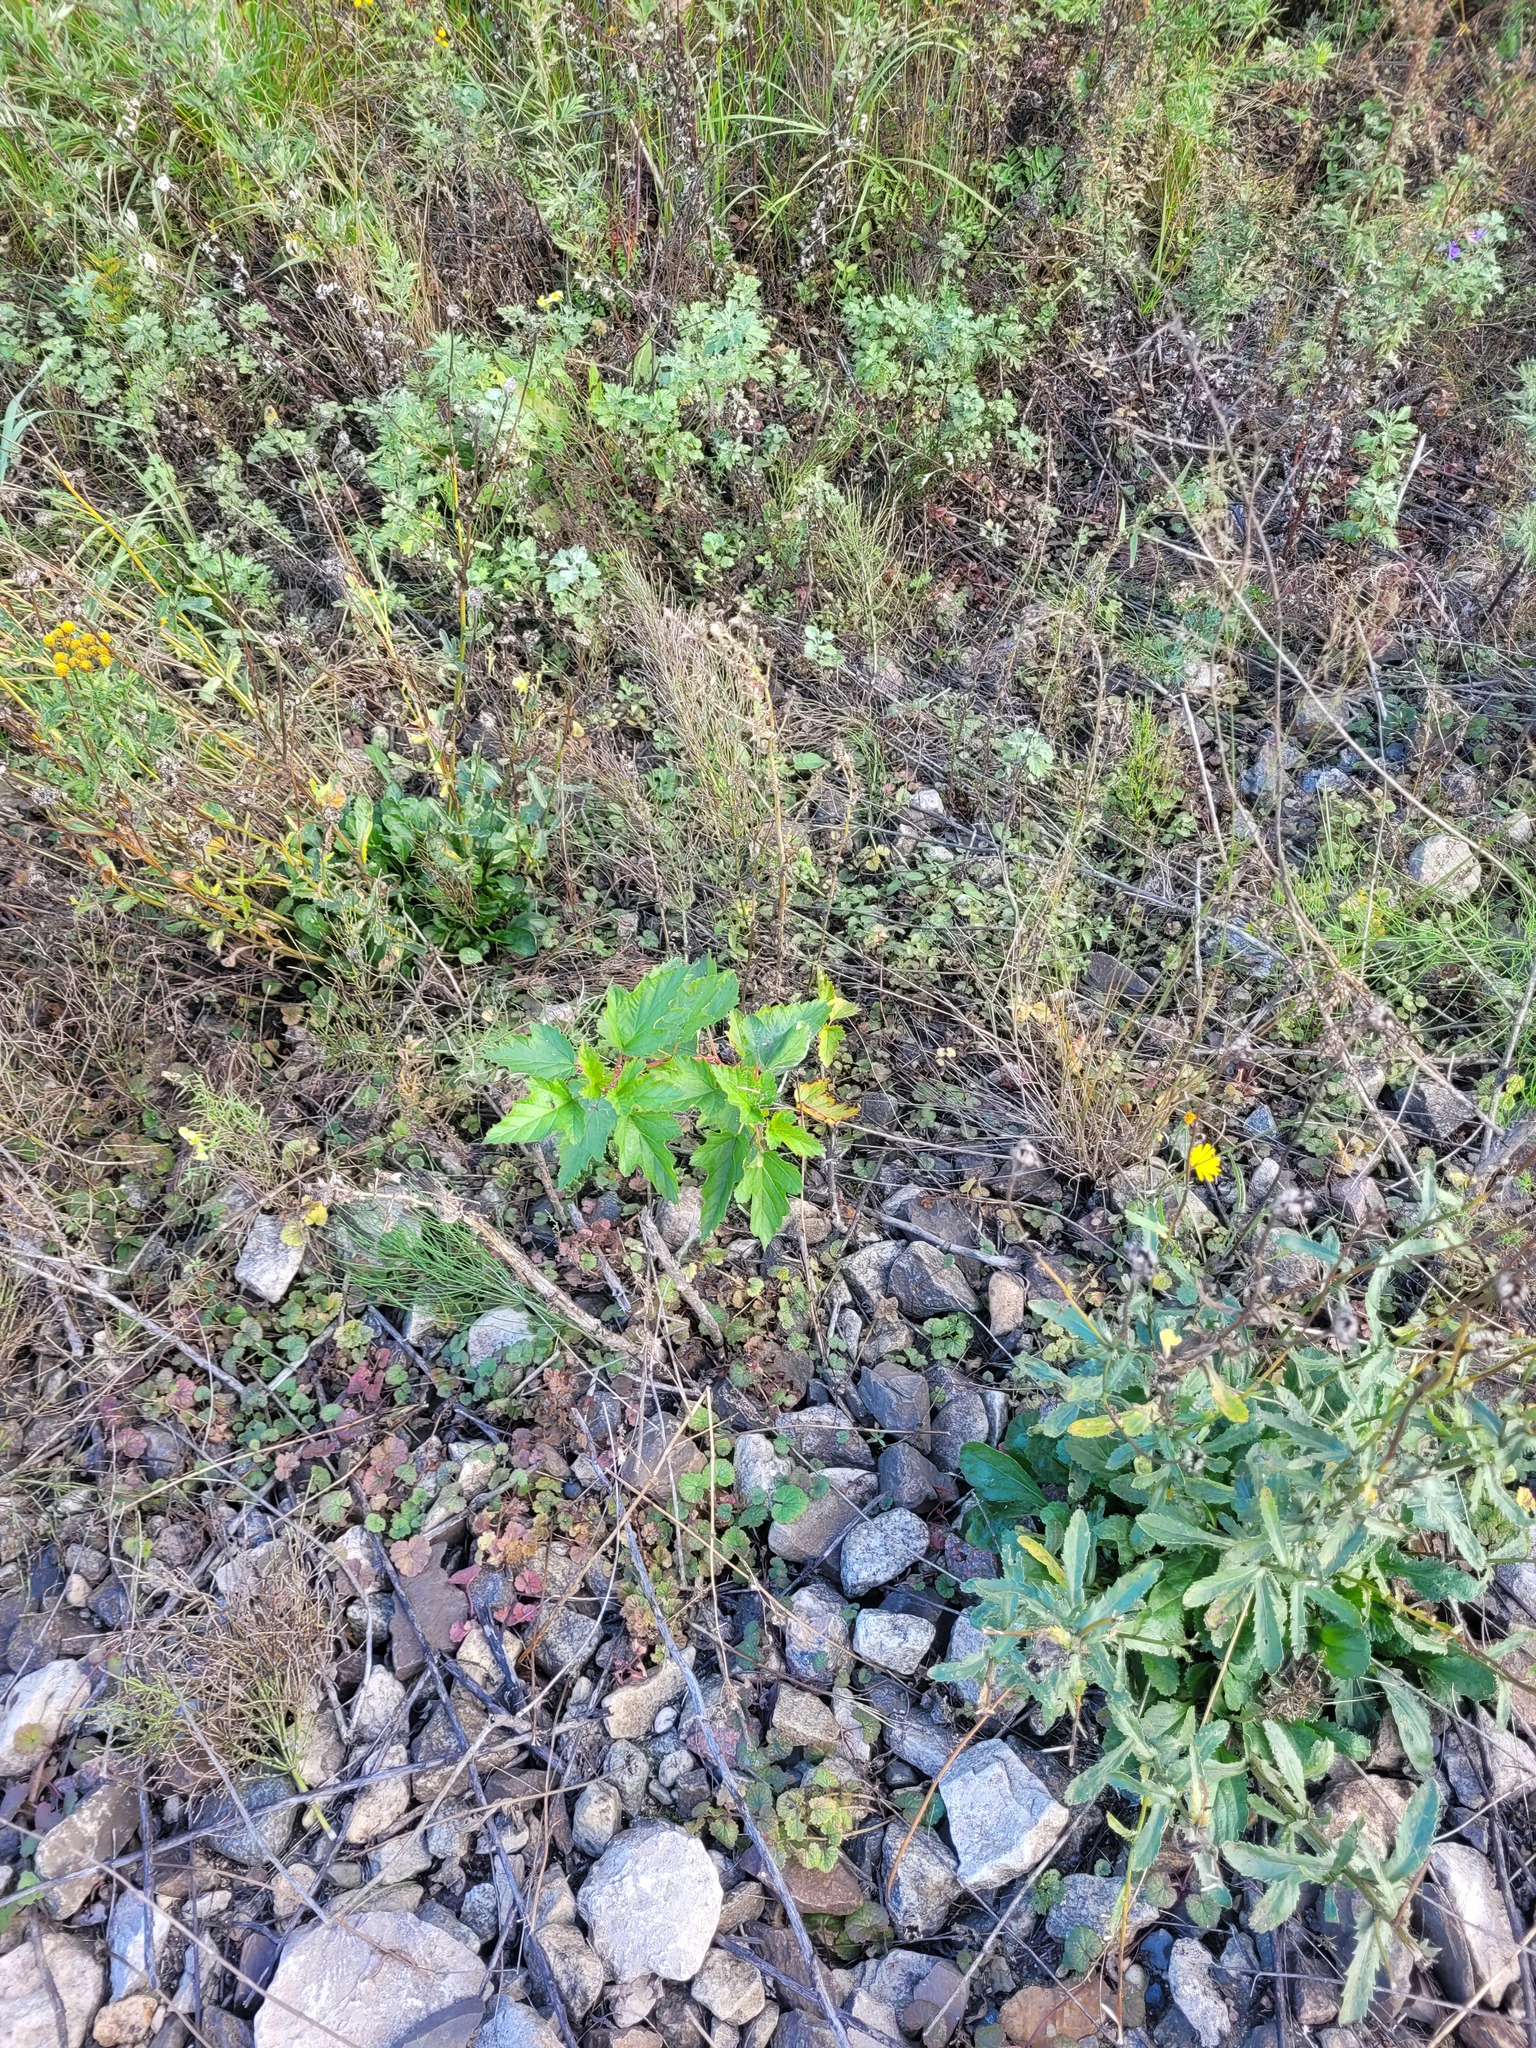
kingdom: Plantae
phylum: Tracheophyta
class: Magnoliopsida
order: Rosales
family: Rosaceae
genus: Physocarpus
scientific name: Physocarpus opulifolius
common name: Ninebark
